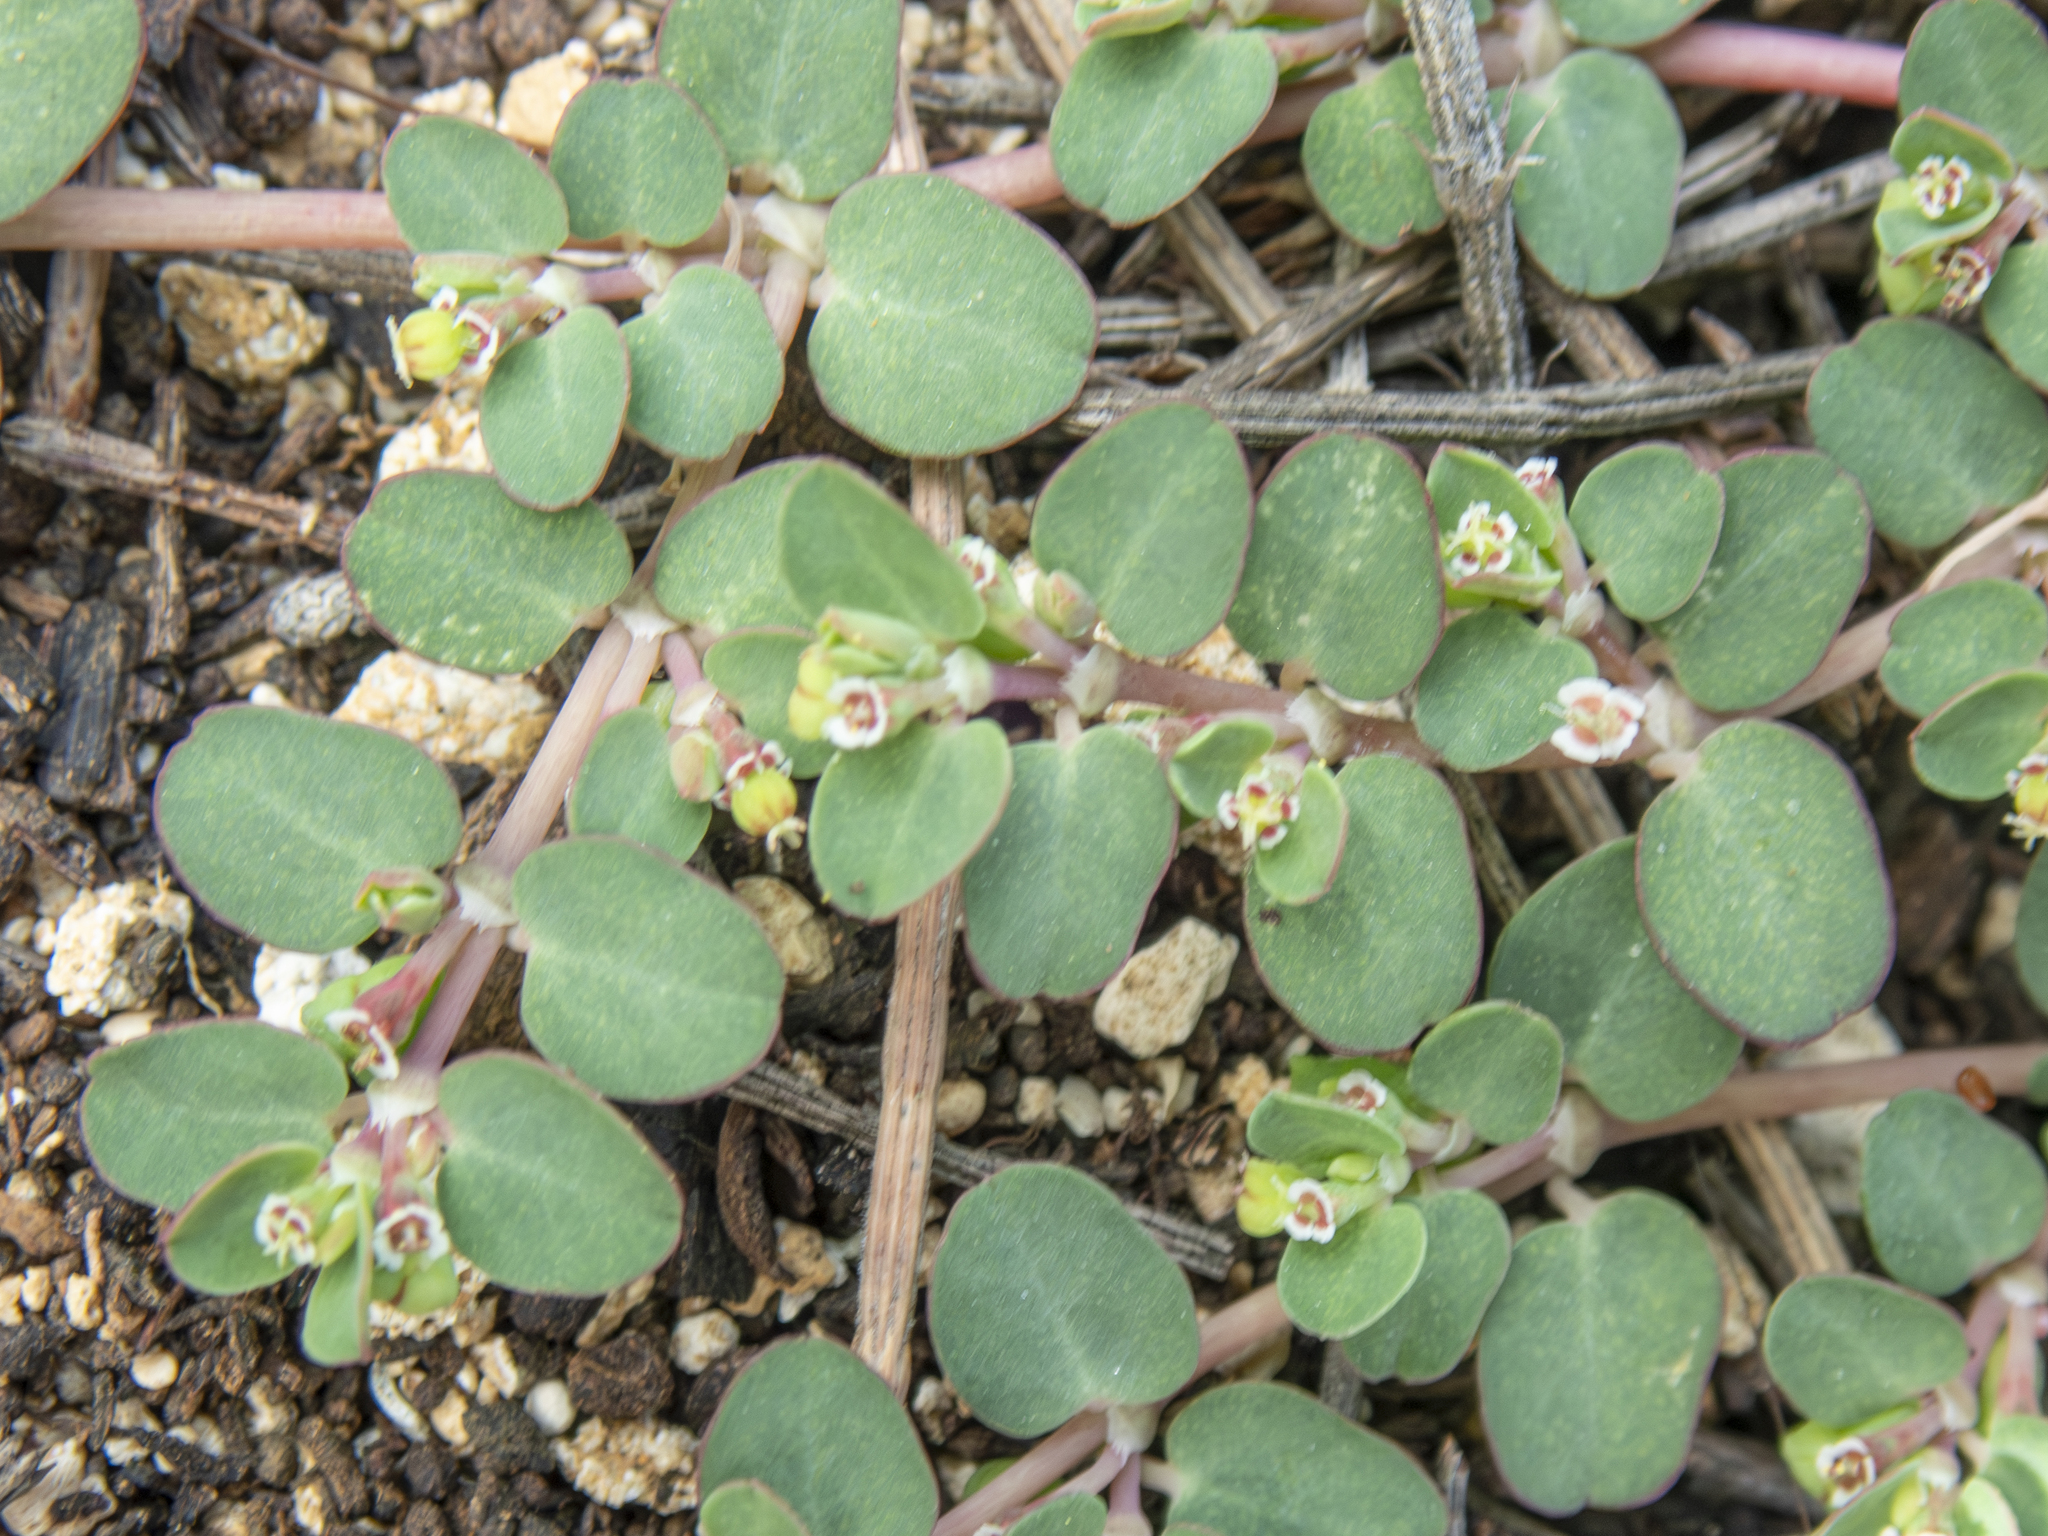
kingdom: Plantae
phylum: Tracheophyta
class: Magnoliopsida
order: Malpighiales
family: Euphorbiaceae
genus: Euphorbia
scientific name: Euphorbia serpens
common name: Matted sandmat
